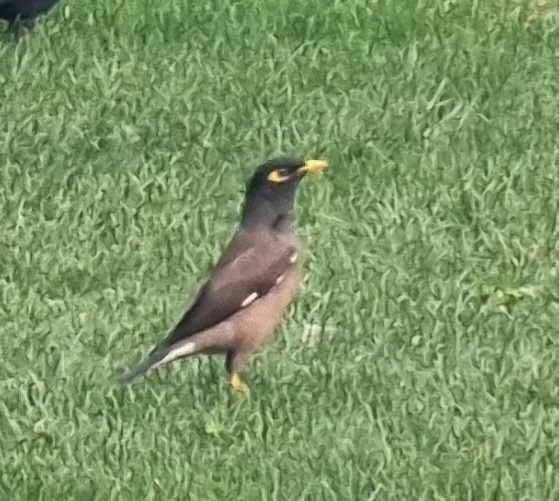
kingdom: Animalia
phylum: Chordata
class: Aves
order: Passeriformes
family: Sturnidae
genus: Acridotheres
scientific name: Acridotheres tristis
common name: Common myna
